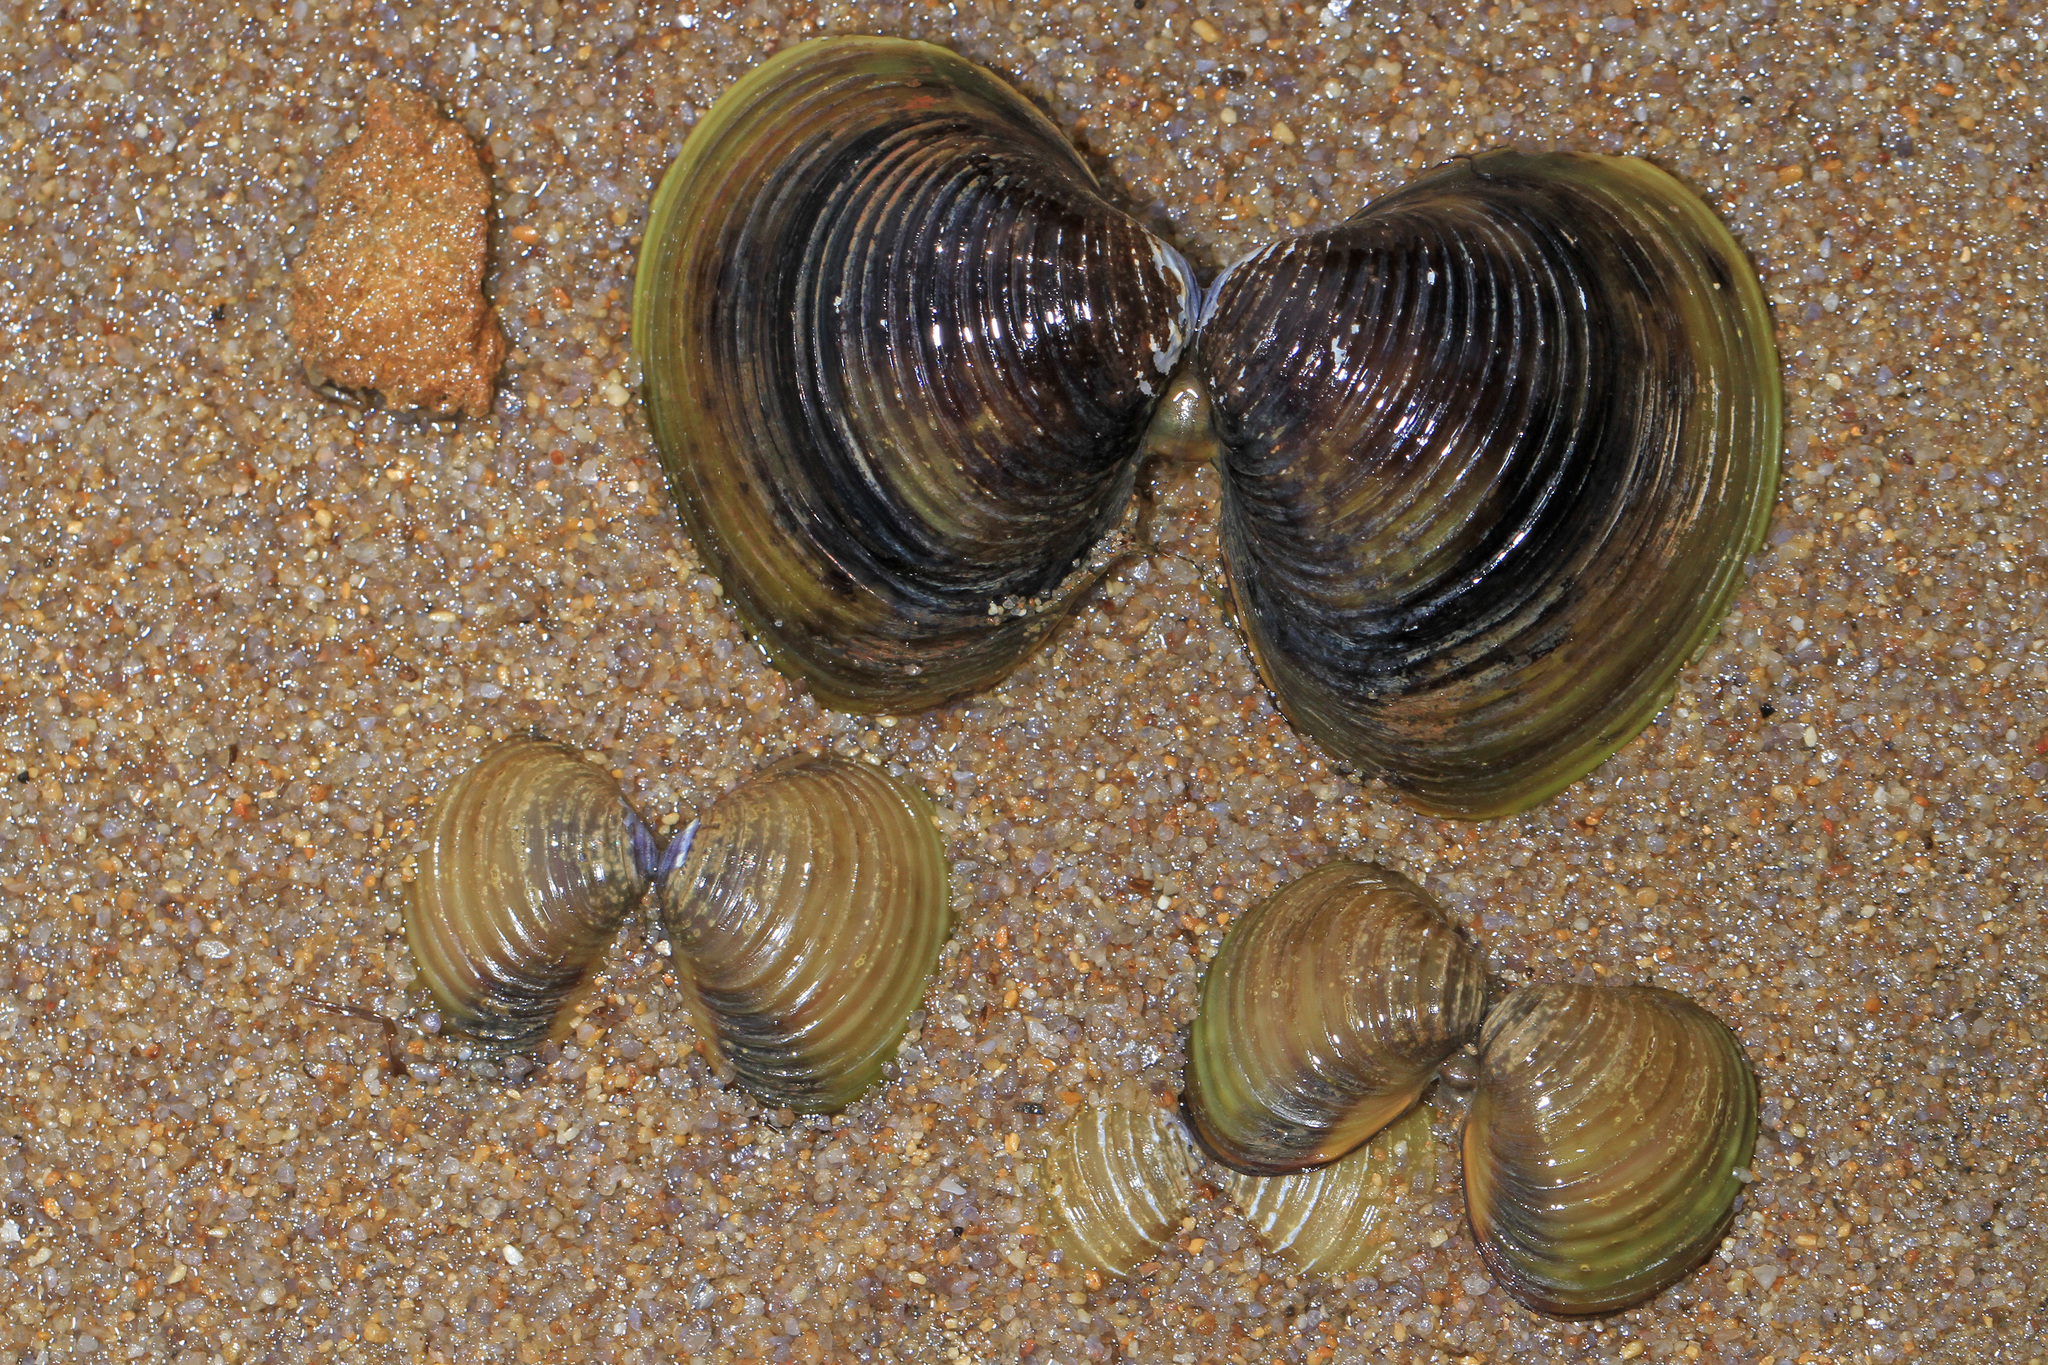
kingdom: Animalia
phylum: Mollusca
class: Bivalvia
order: Venerida
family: Cyrenidae
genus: Corbicula
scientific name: Corbicula fluminea
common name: Asian clam
